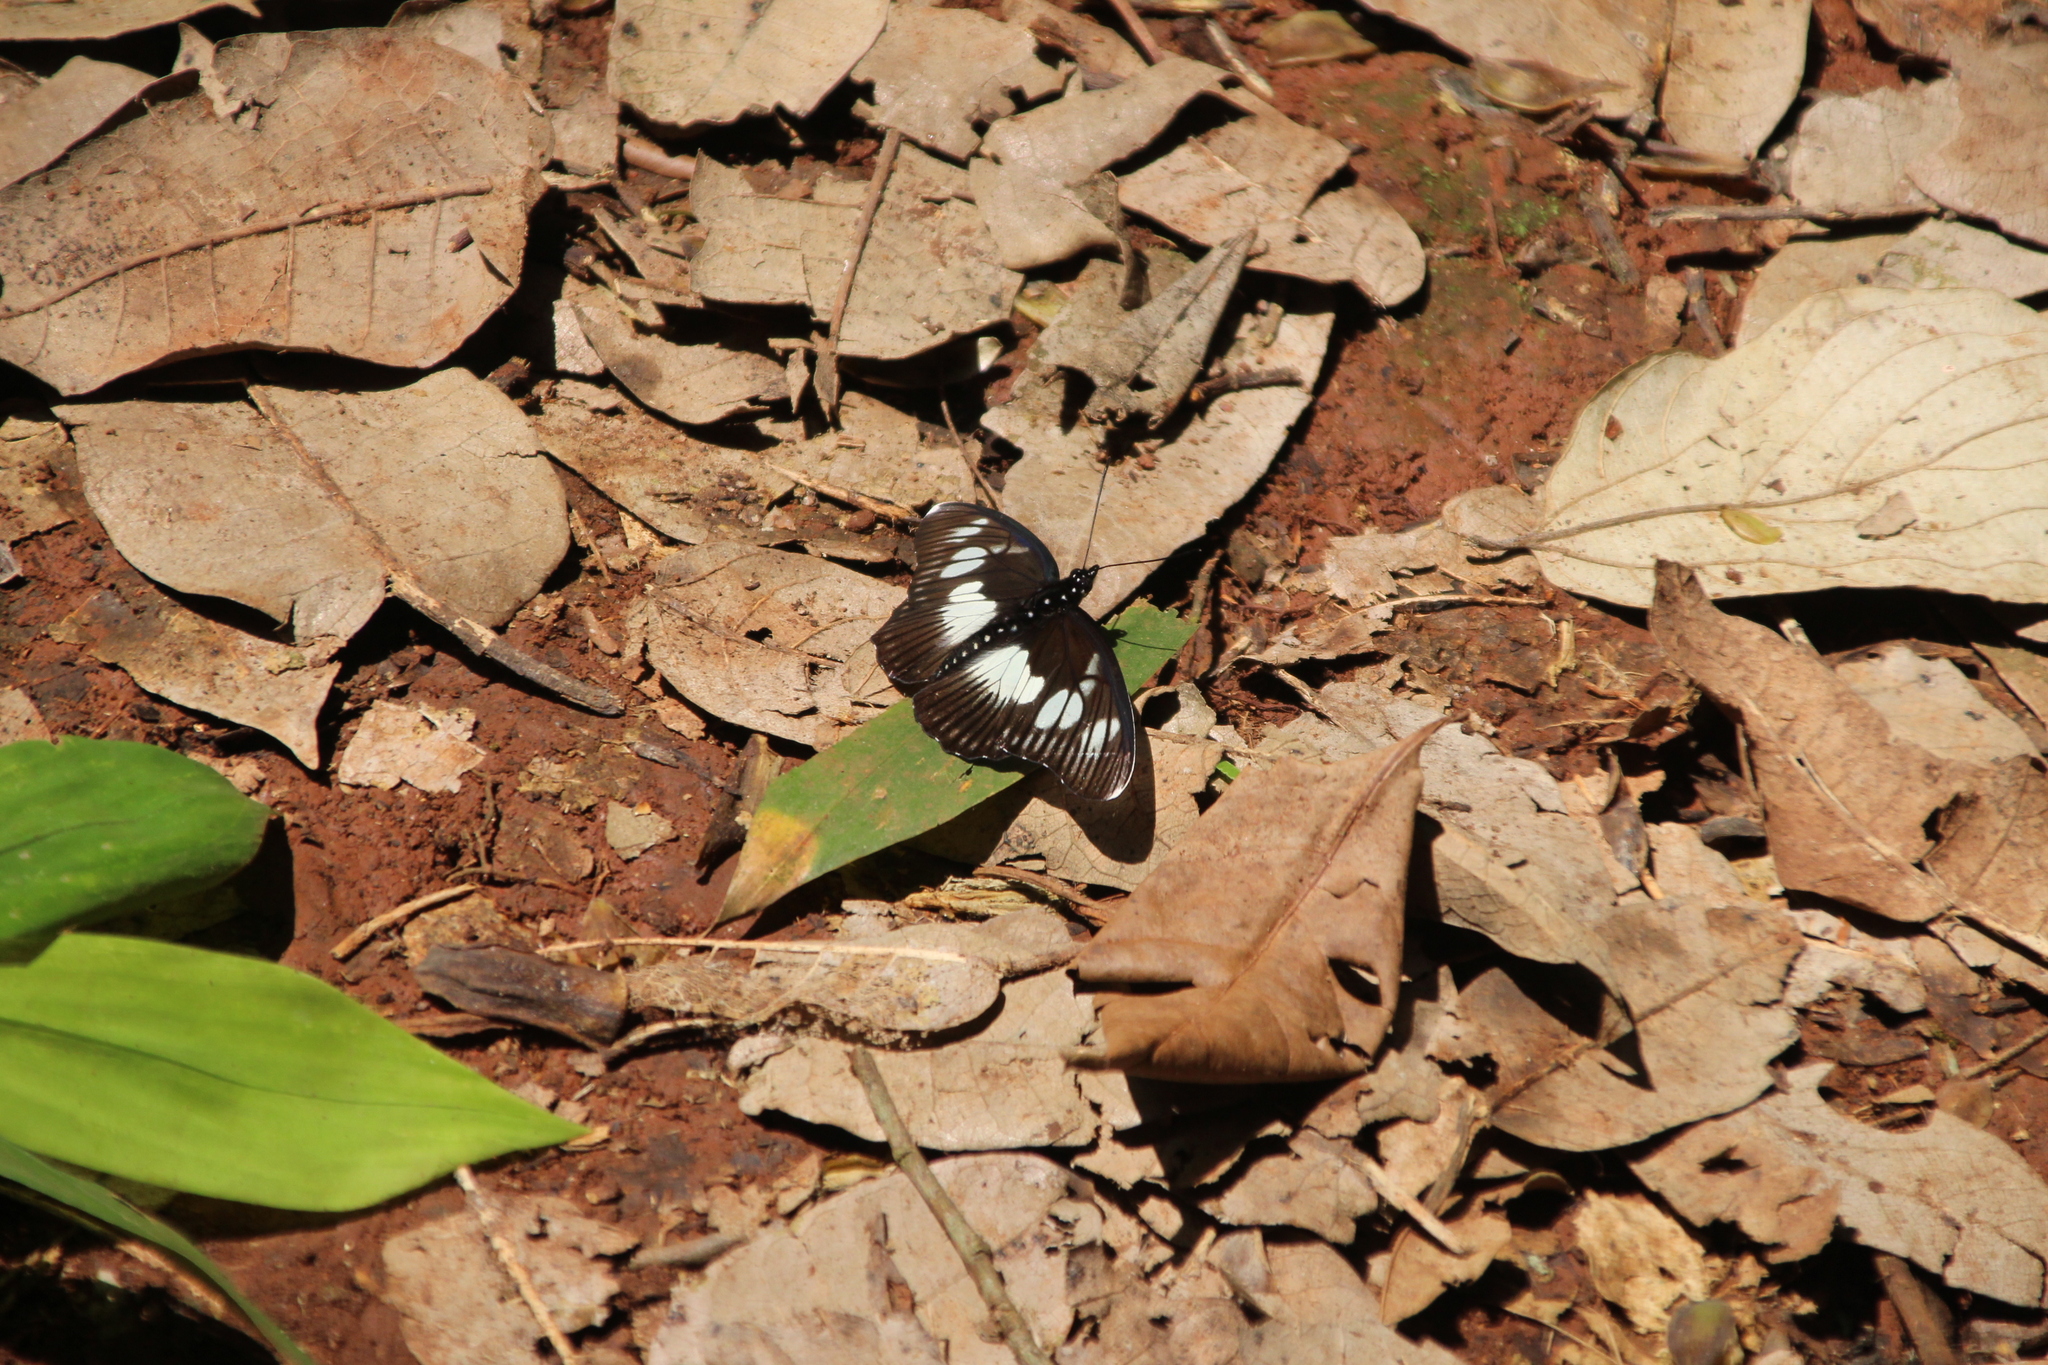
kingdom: Animalia
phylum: Arthropoda
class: Insecta
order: Lepidoptera
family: Nymphalidae
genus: Chloropoea
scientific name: Chloropoea lucretia
